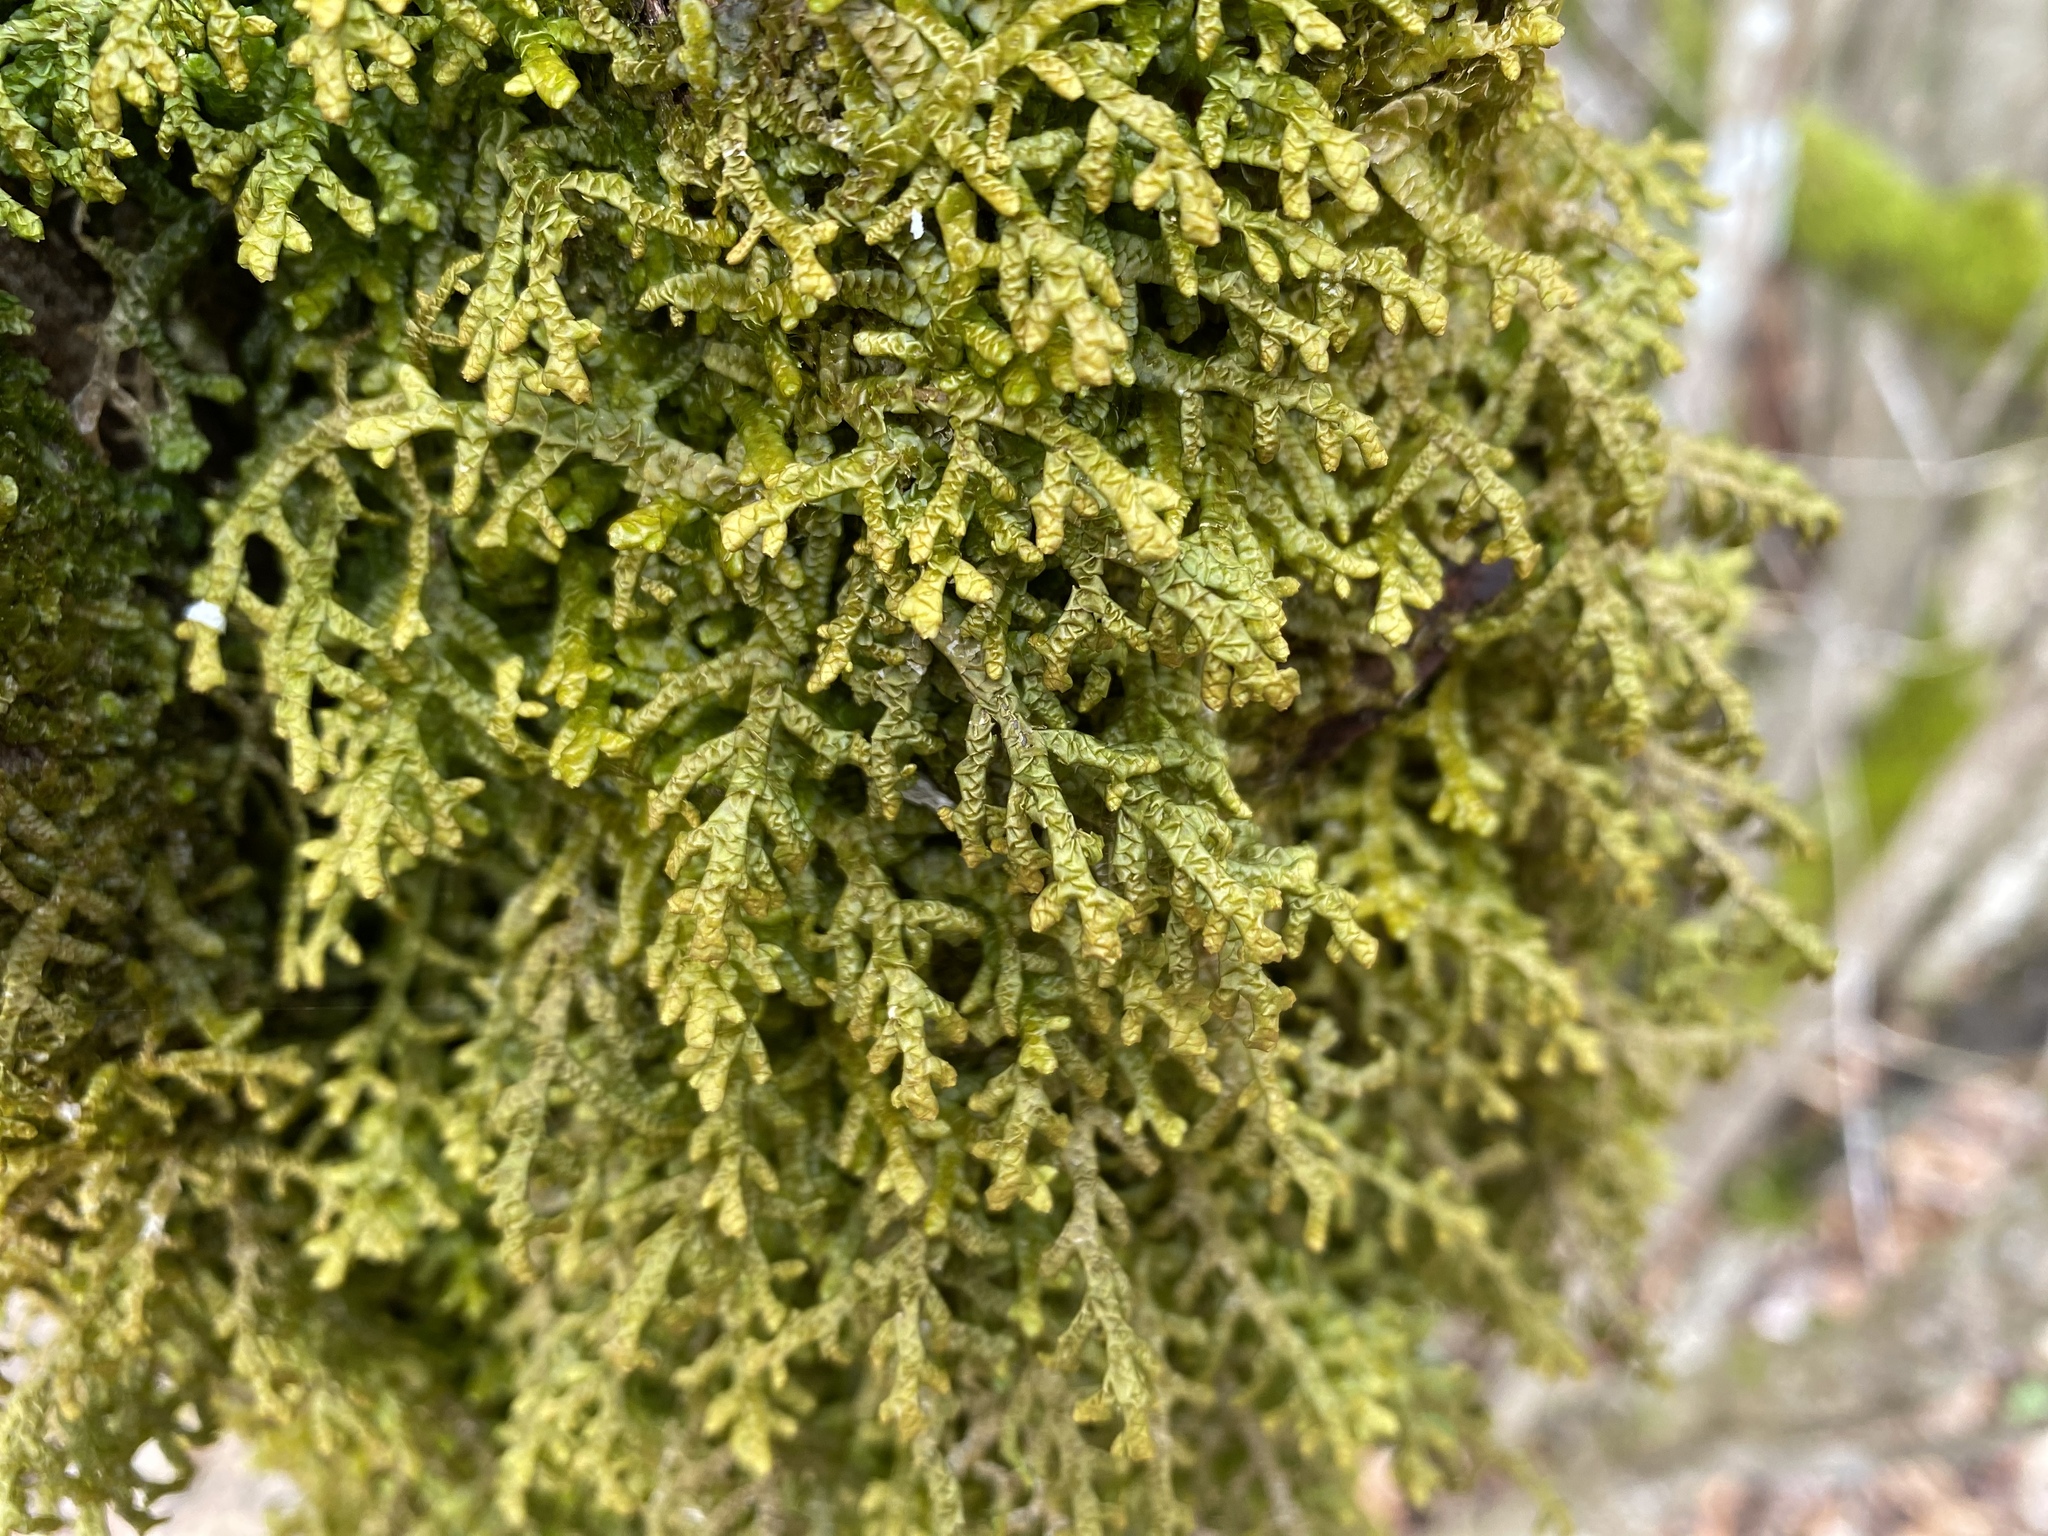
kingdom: Plantae
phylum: Marchantiophyta
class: Jungermanniopsida
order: Porellales
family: Porellaceae
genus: Porella
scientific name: Porella platyphylla
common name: Wall scalewort
